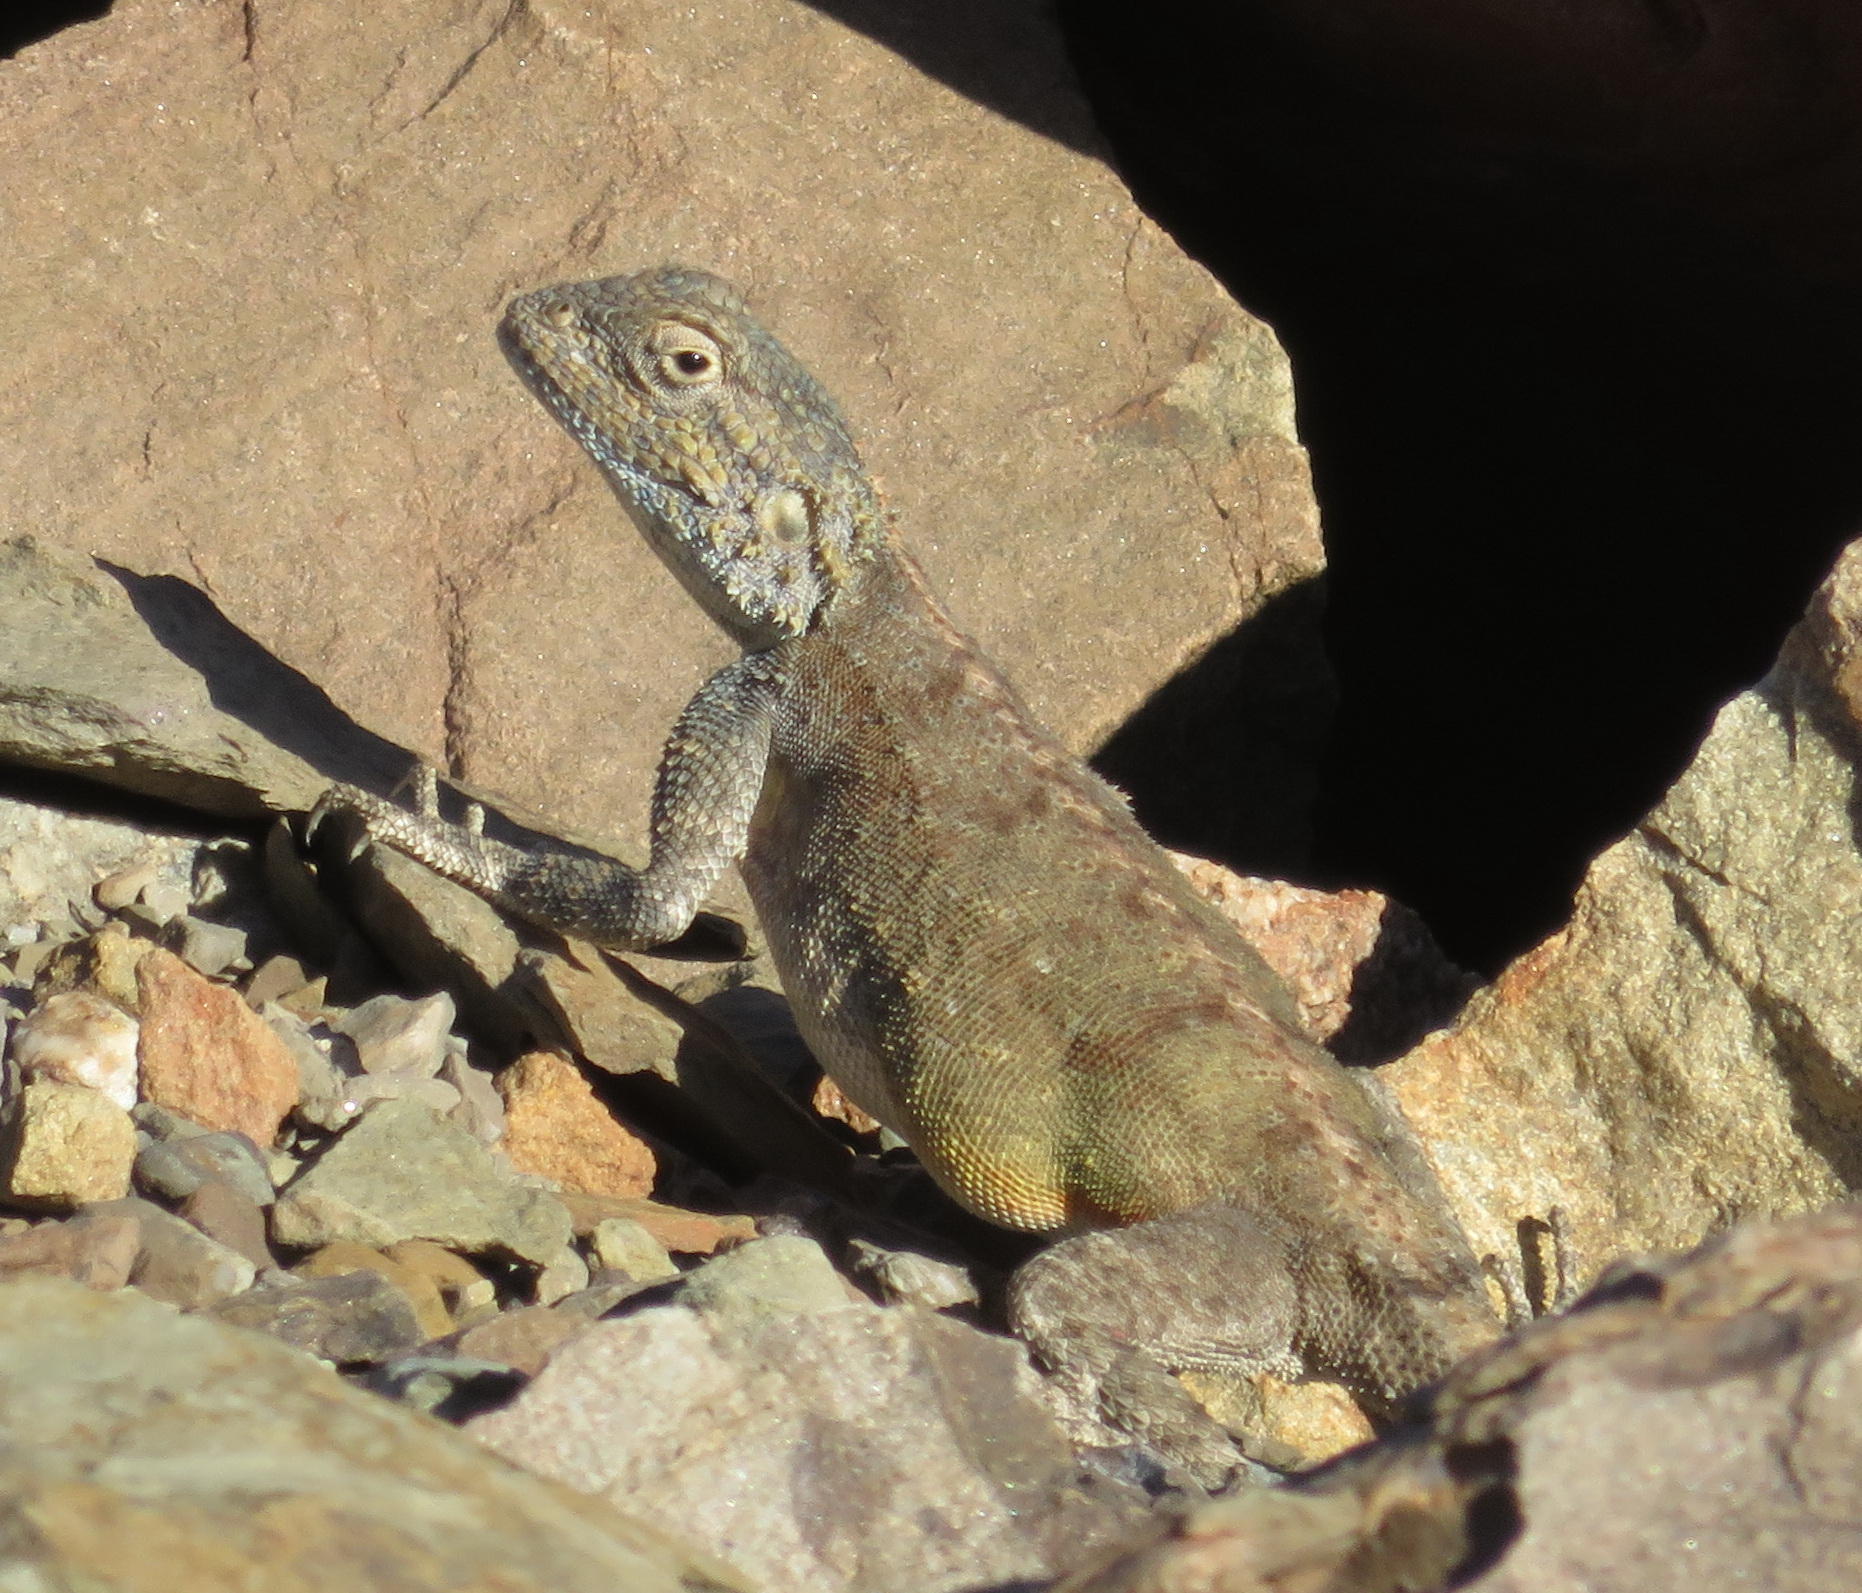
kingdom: Animalia
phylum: Chordata
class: Squamata
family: Agamidae
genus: Agama
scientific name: Agama atra
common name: Southern african rock agama
